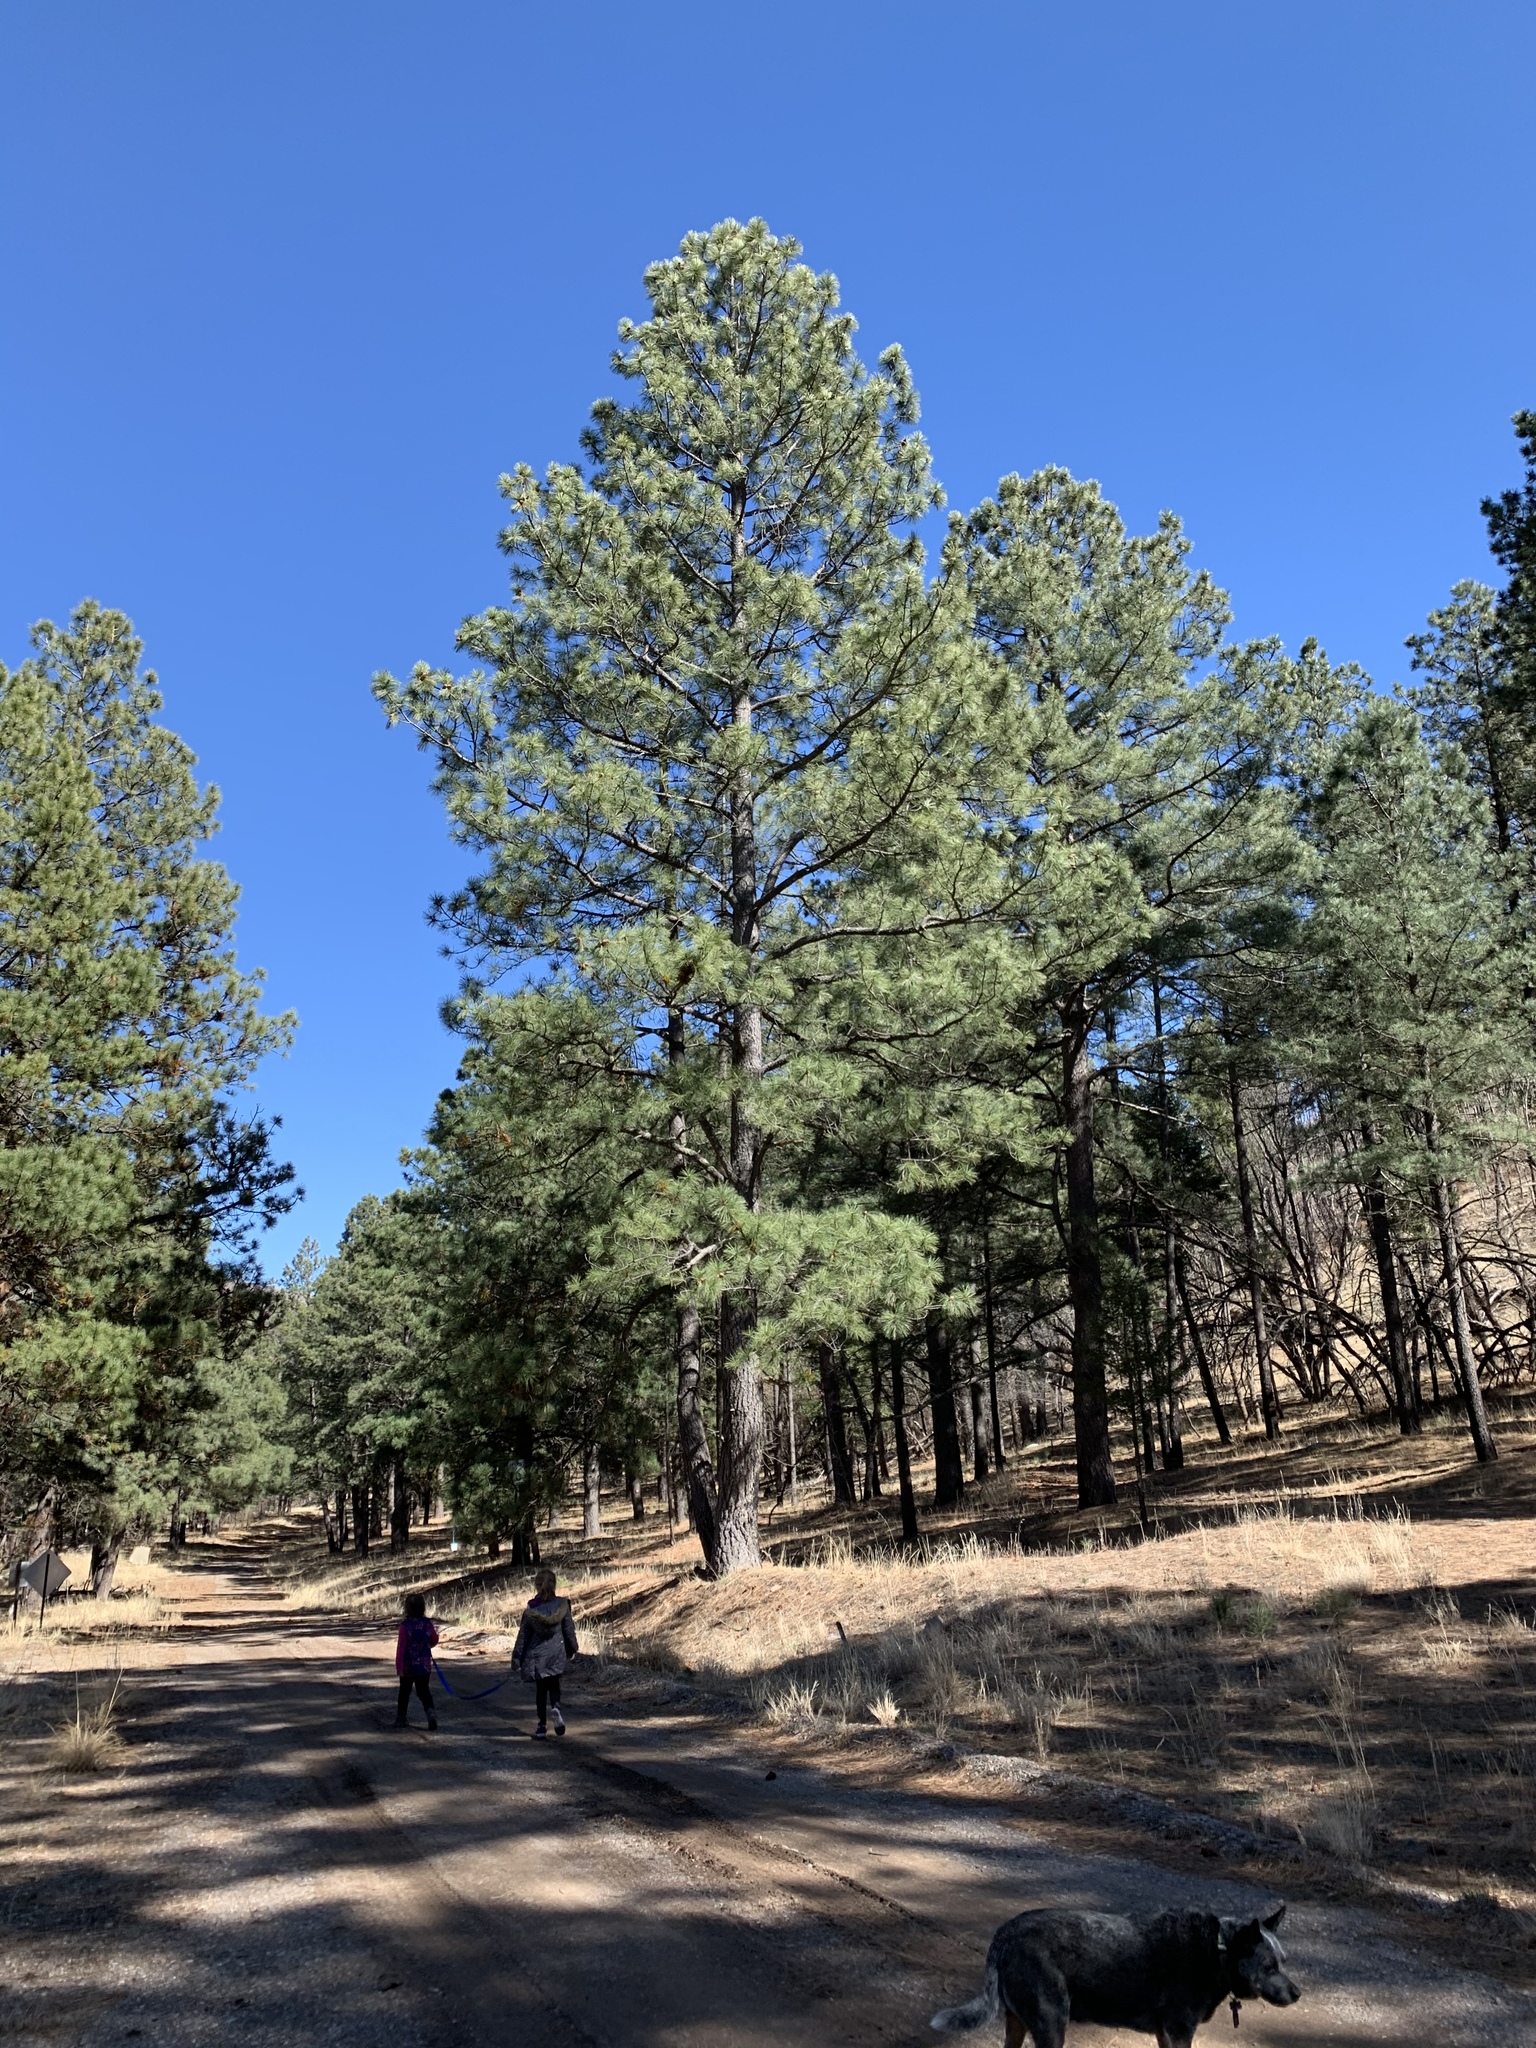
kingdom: Plantae
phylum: Tracheophyta
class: Pinopsida
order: Pinales
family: Pinaceae
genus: Pinus
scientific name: Pinus ponderosa
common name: Western yellow-pine
